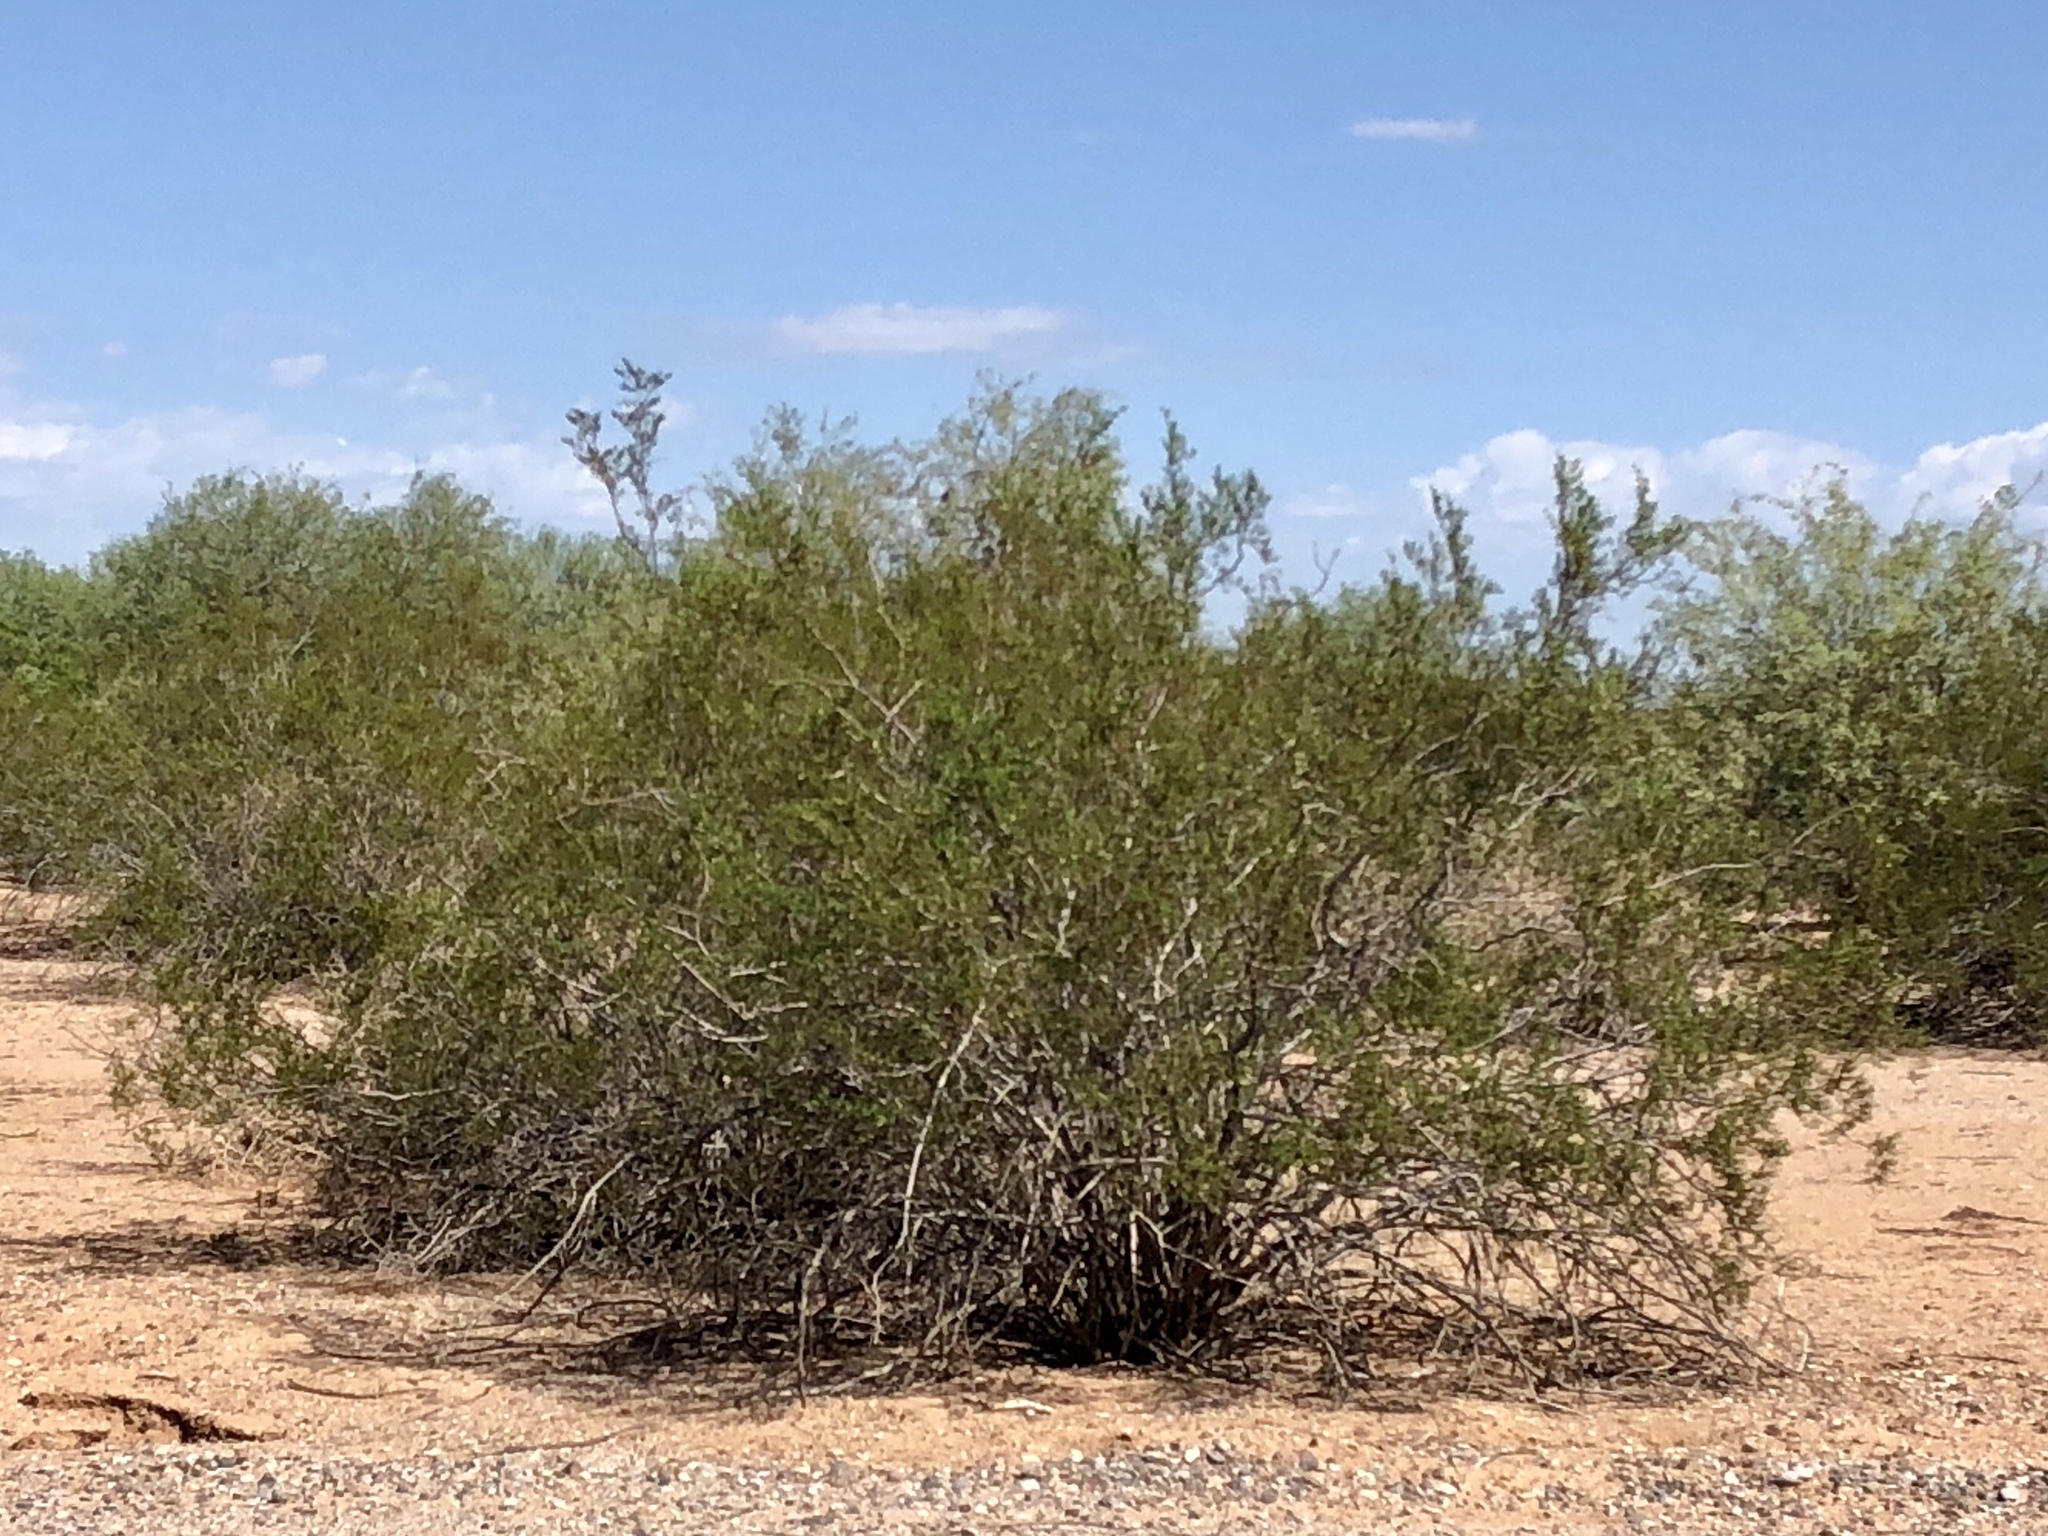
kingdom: Plantae
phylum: Tracheophyta
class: Magnoliopsida
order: Zygophyllales
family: Zygophyllaceae
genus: Larrea
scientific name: Larrea tridentata
